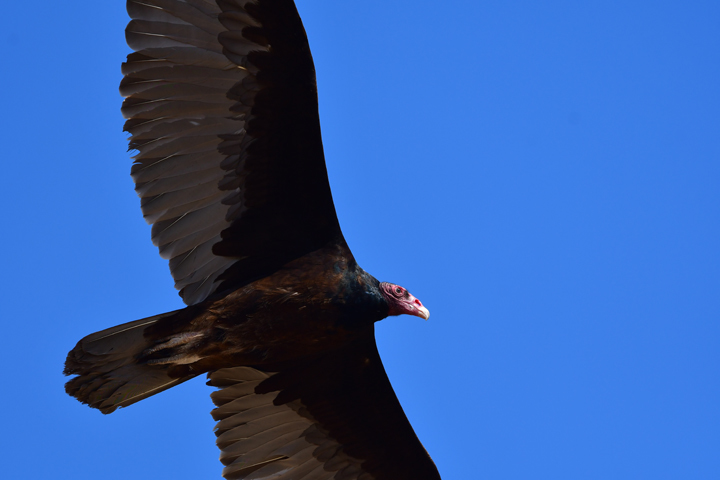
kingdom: Animalia
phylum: Chordata
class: Aves
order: Accipitriformes
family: Cathartidae
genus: Cathartes
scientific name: Cathartes aura
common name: Turkey vulture
